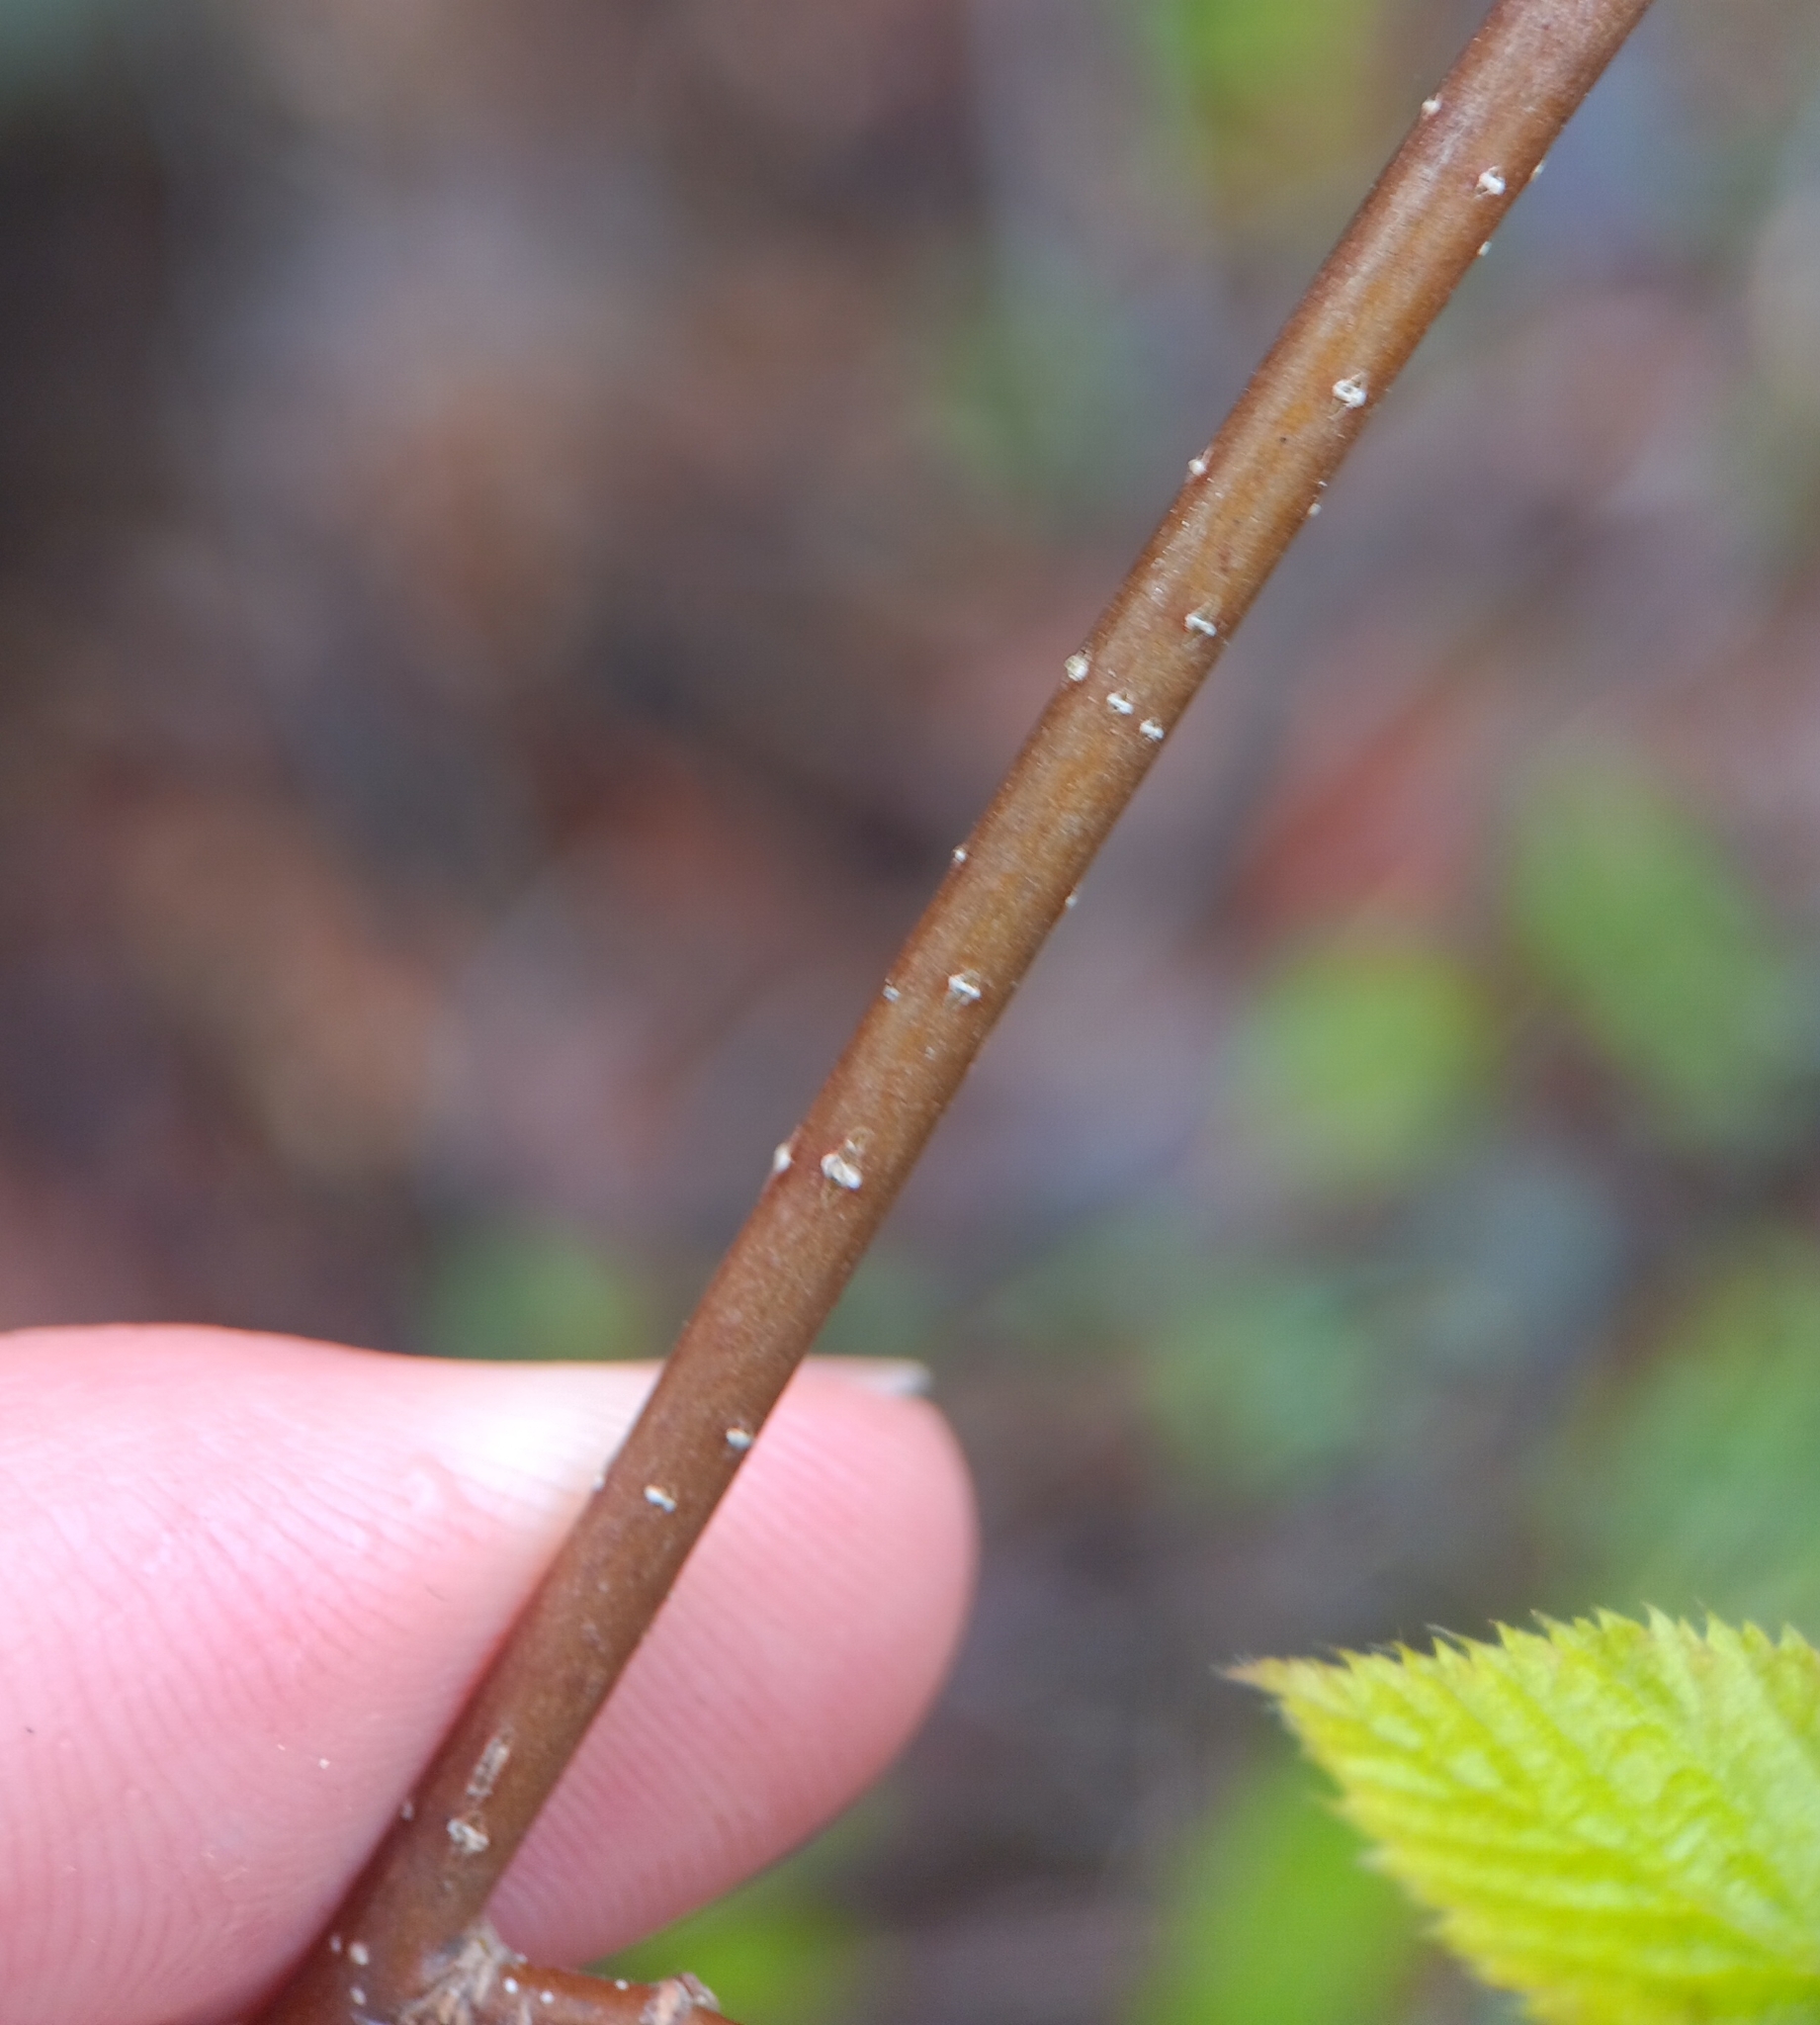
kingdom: Plantae
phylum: Tracheophyta
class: Magnoliopsida
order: Fagales
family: Betulaceae
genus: Ostrya
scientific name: Ostrya virginiana
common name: Ironwood
